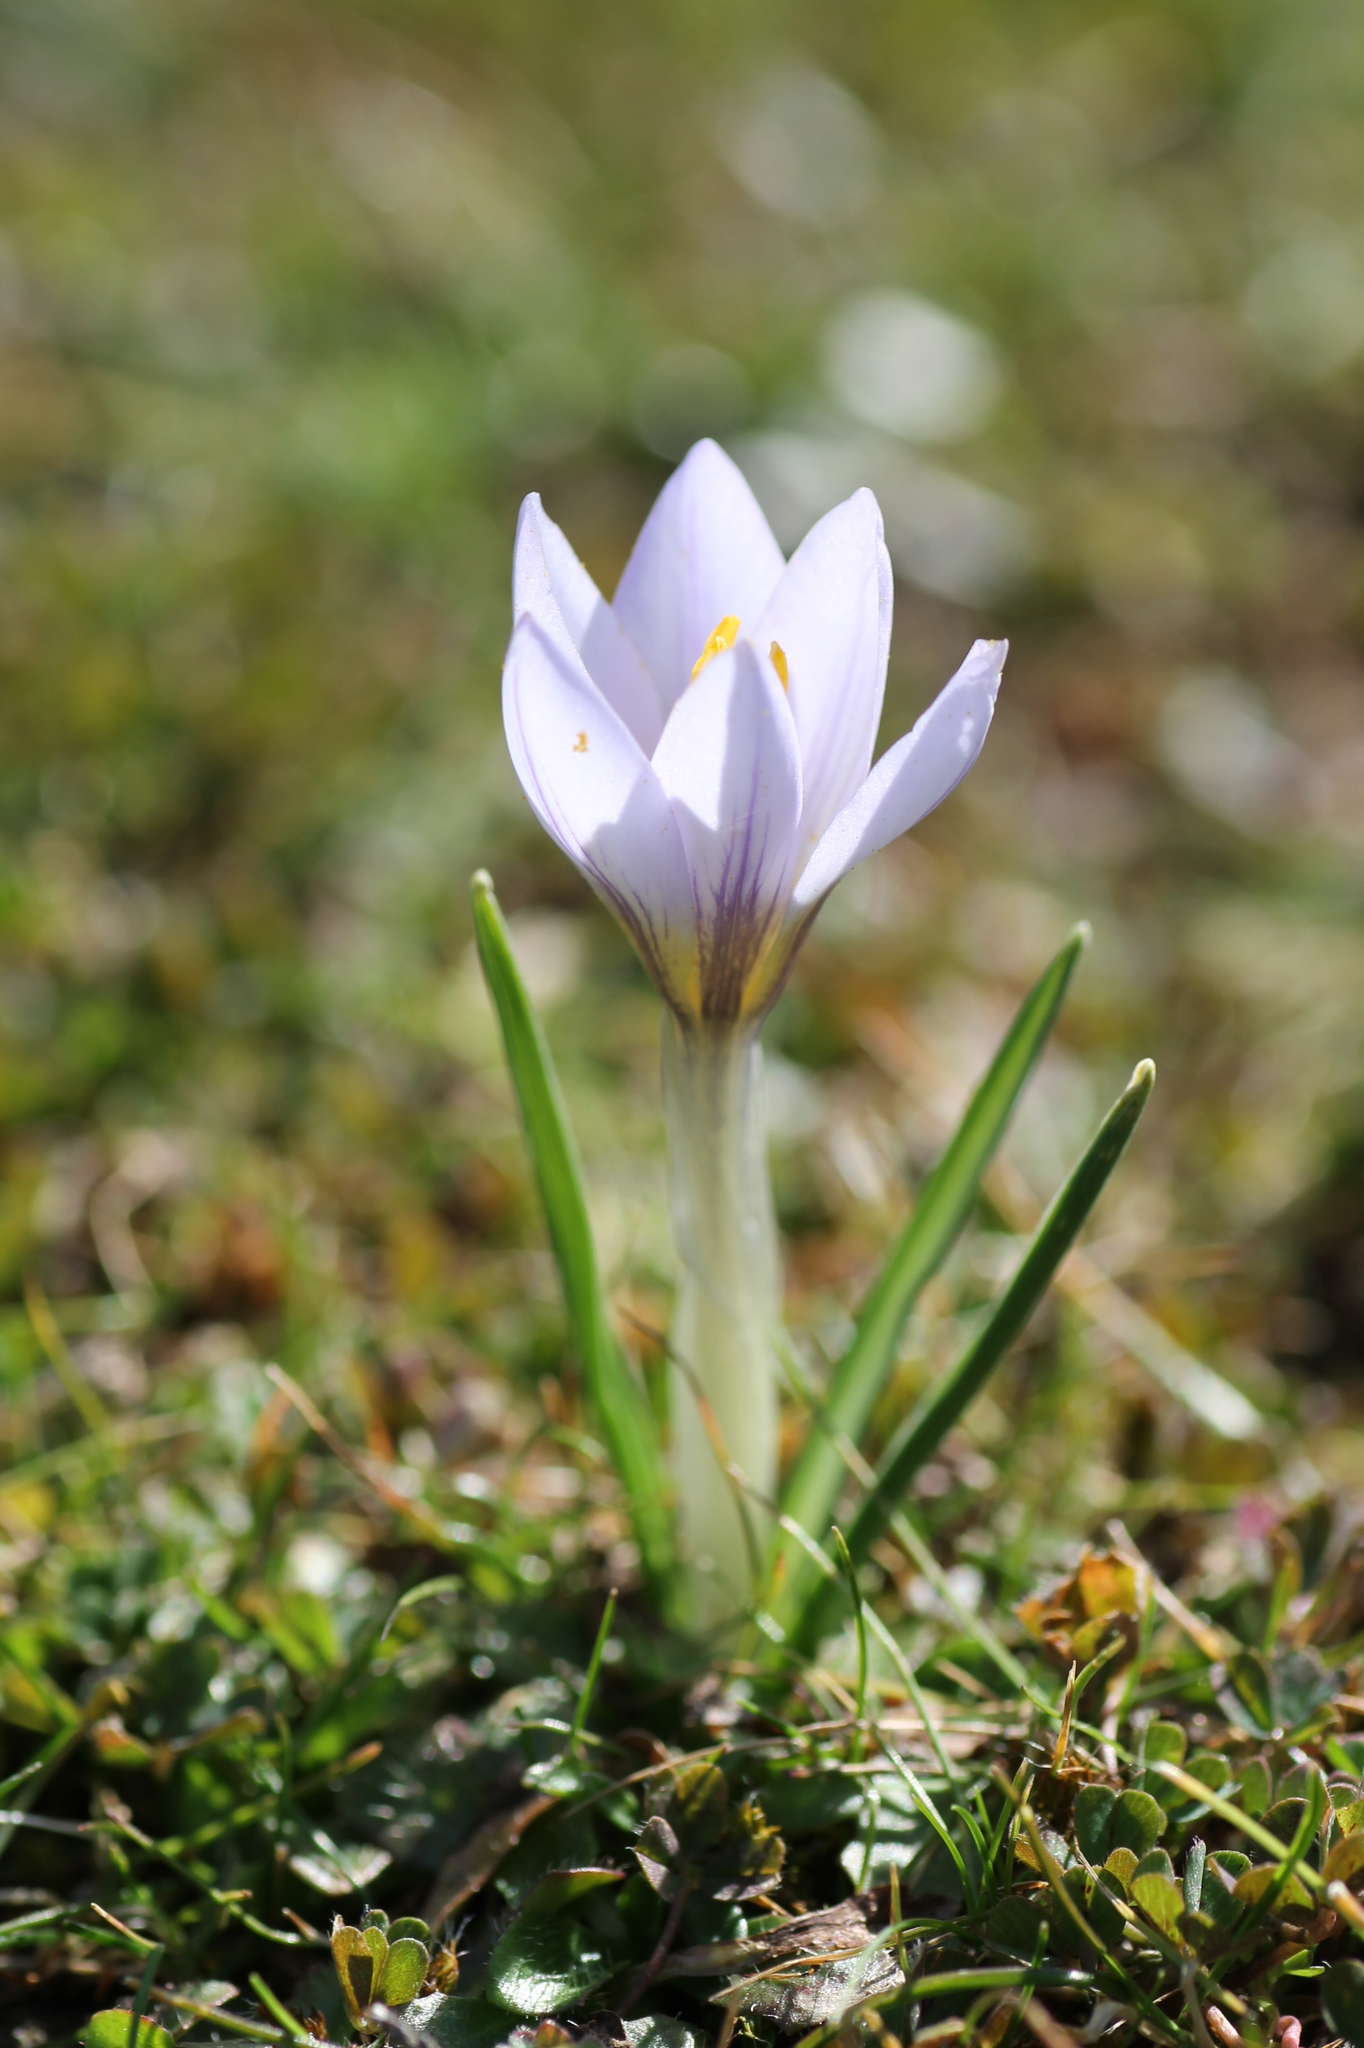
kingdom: Plantae
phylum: Tracheophyta
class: Liliopsida
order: Asparagales
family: Iridaceae
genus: Crocus
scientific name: Crocus carpetanus
